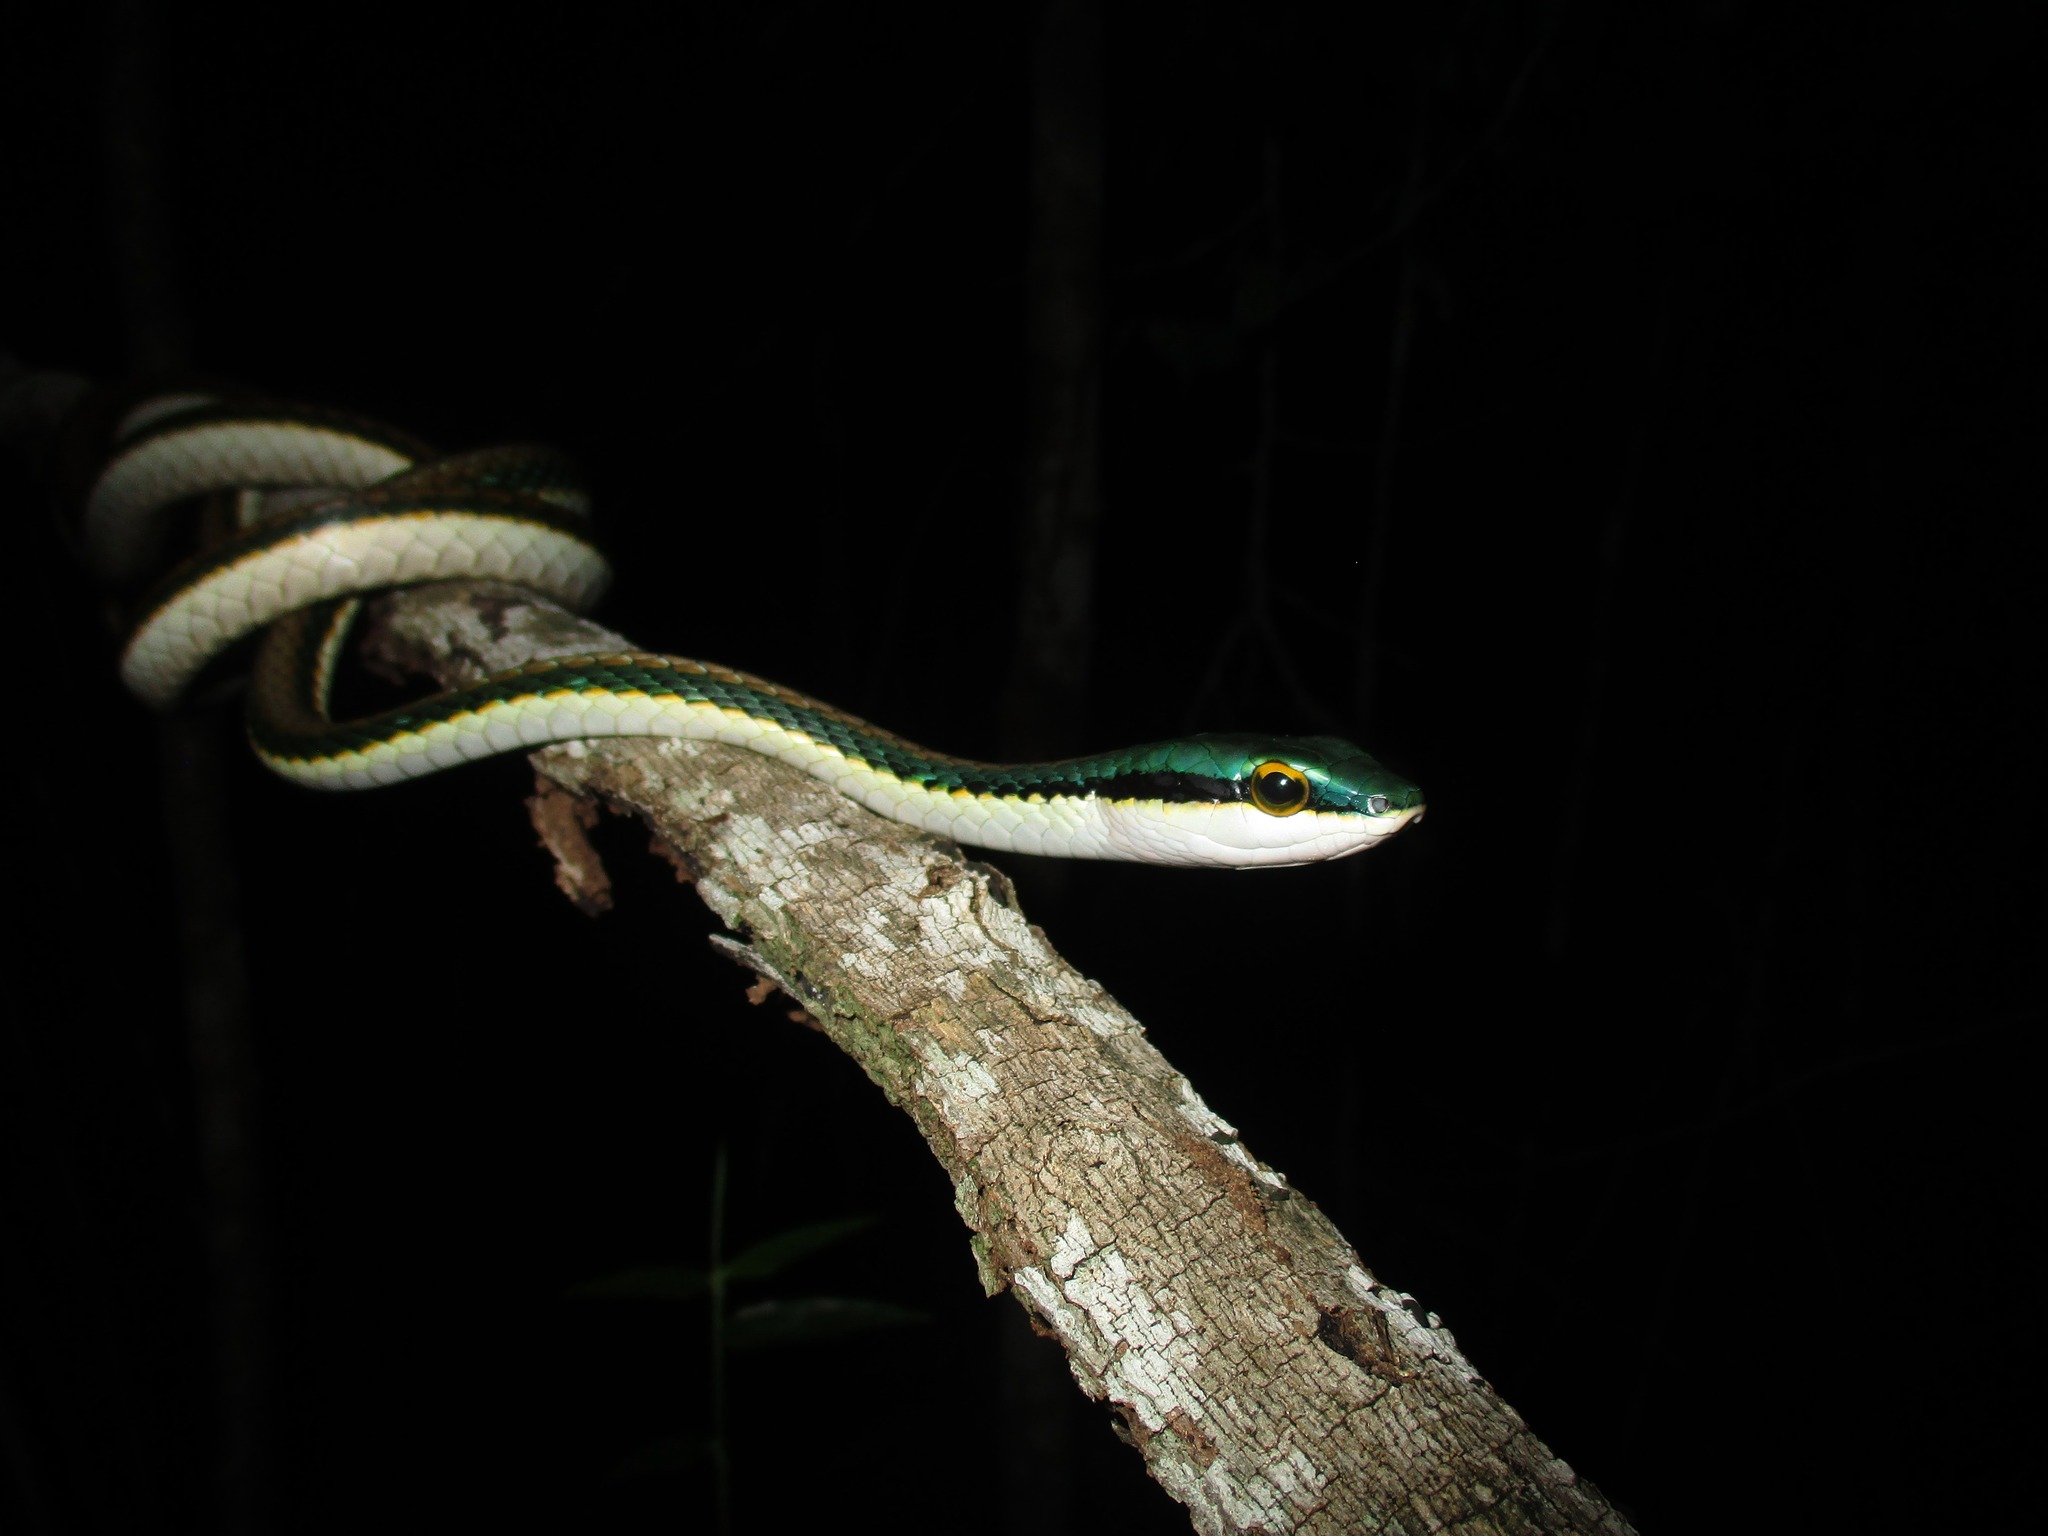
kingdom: Animalia
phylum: Chordata
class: Squamata
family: Colubridae
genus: Leptophis
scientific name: Leptophis mexicanus
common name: Mexican parrot snake
